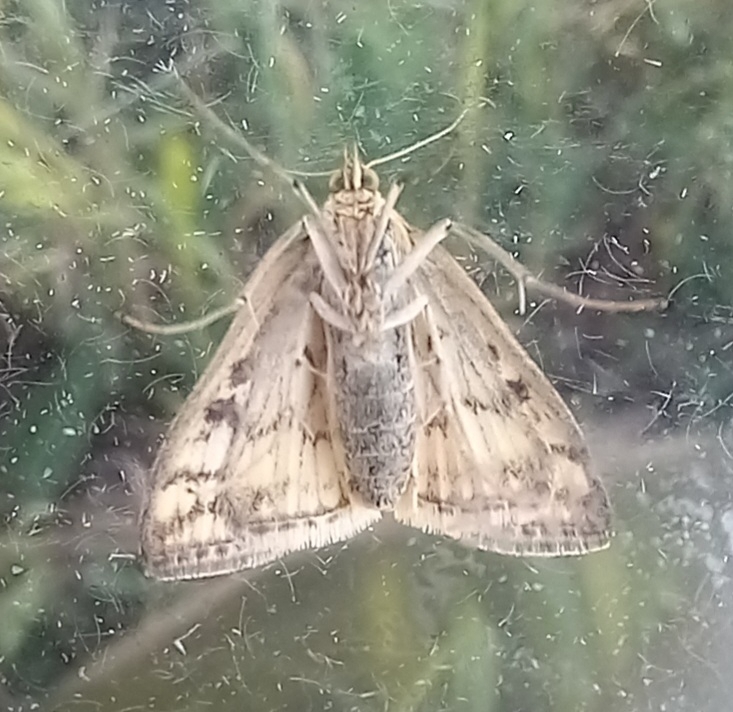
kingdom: Animalia
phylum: Arthropoda
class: Insecta
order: Lepidoptera
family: Crambidae
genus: Sitochroa
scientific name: Sitochroa verticalis
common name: Lesser pearl
